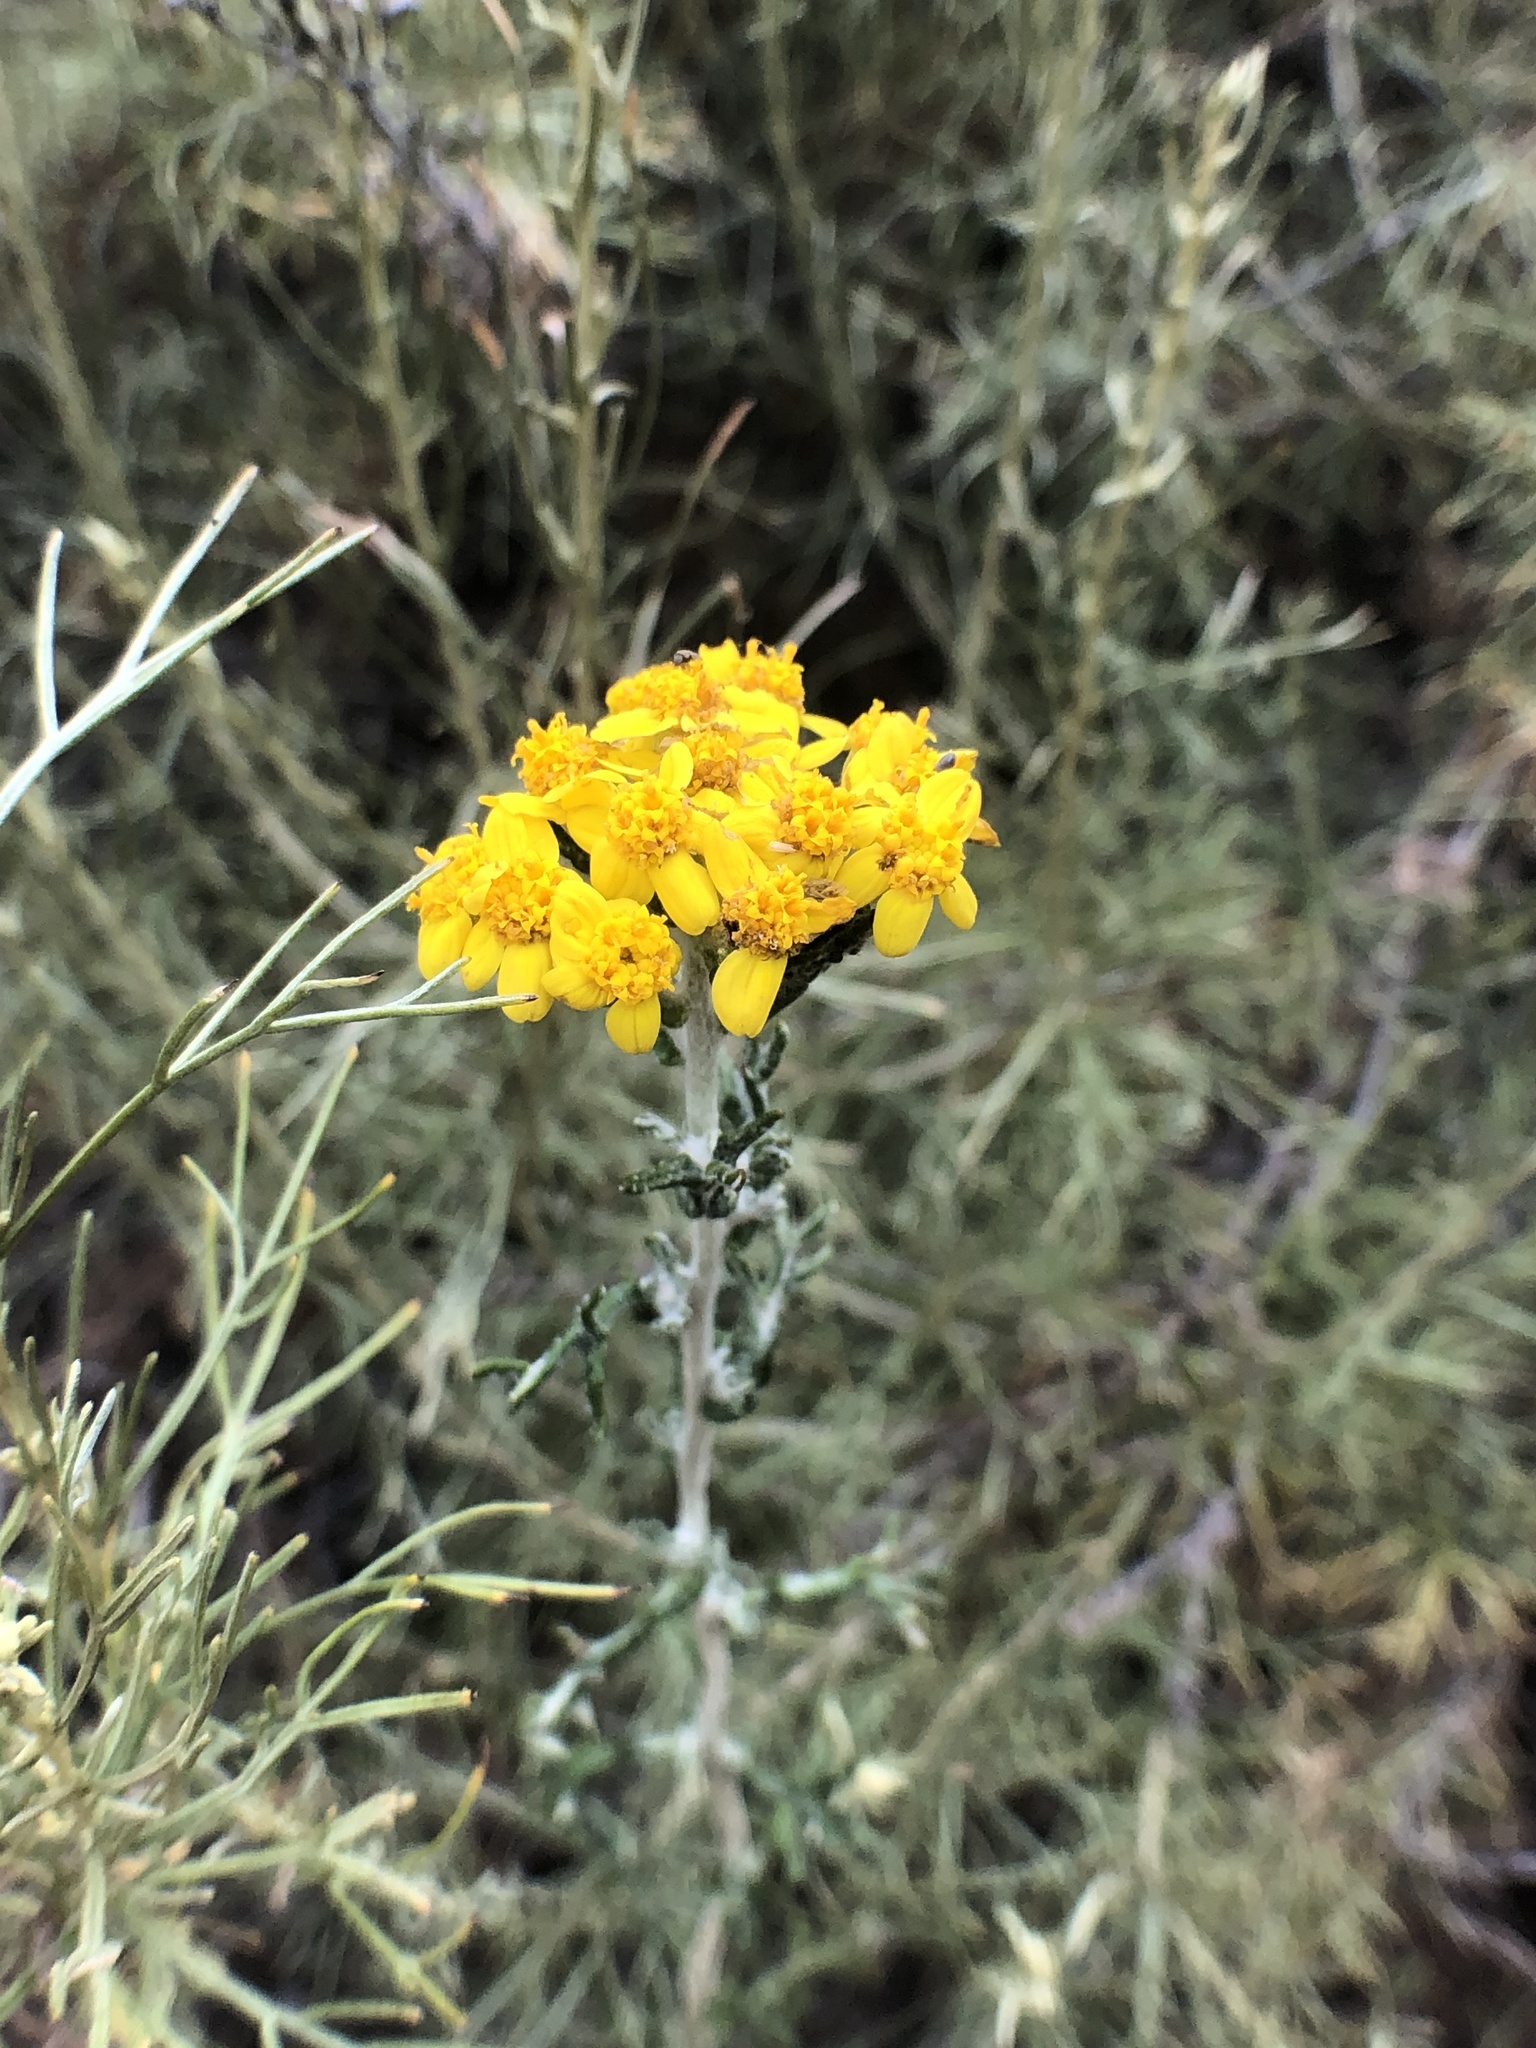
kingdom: Plantae
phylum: Tracheophyta
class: Magnoliopsida
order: Asterales
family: Asteraceae
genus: Eriophyllum
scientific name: Eriophyllum confertiflorum
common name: Golden-yarrow
